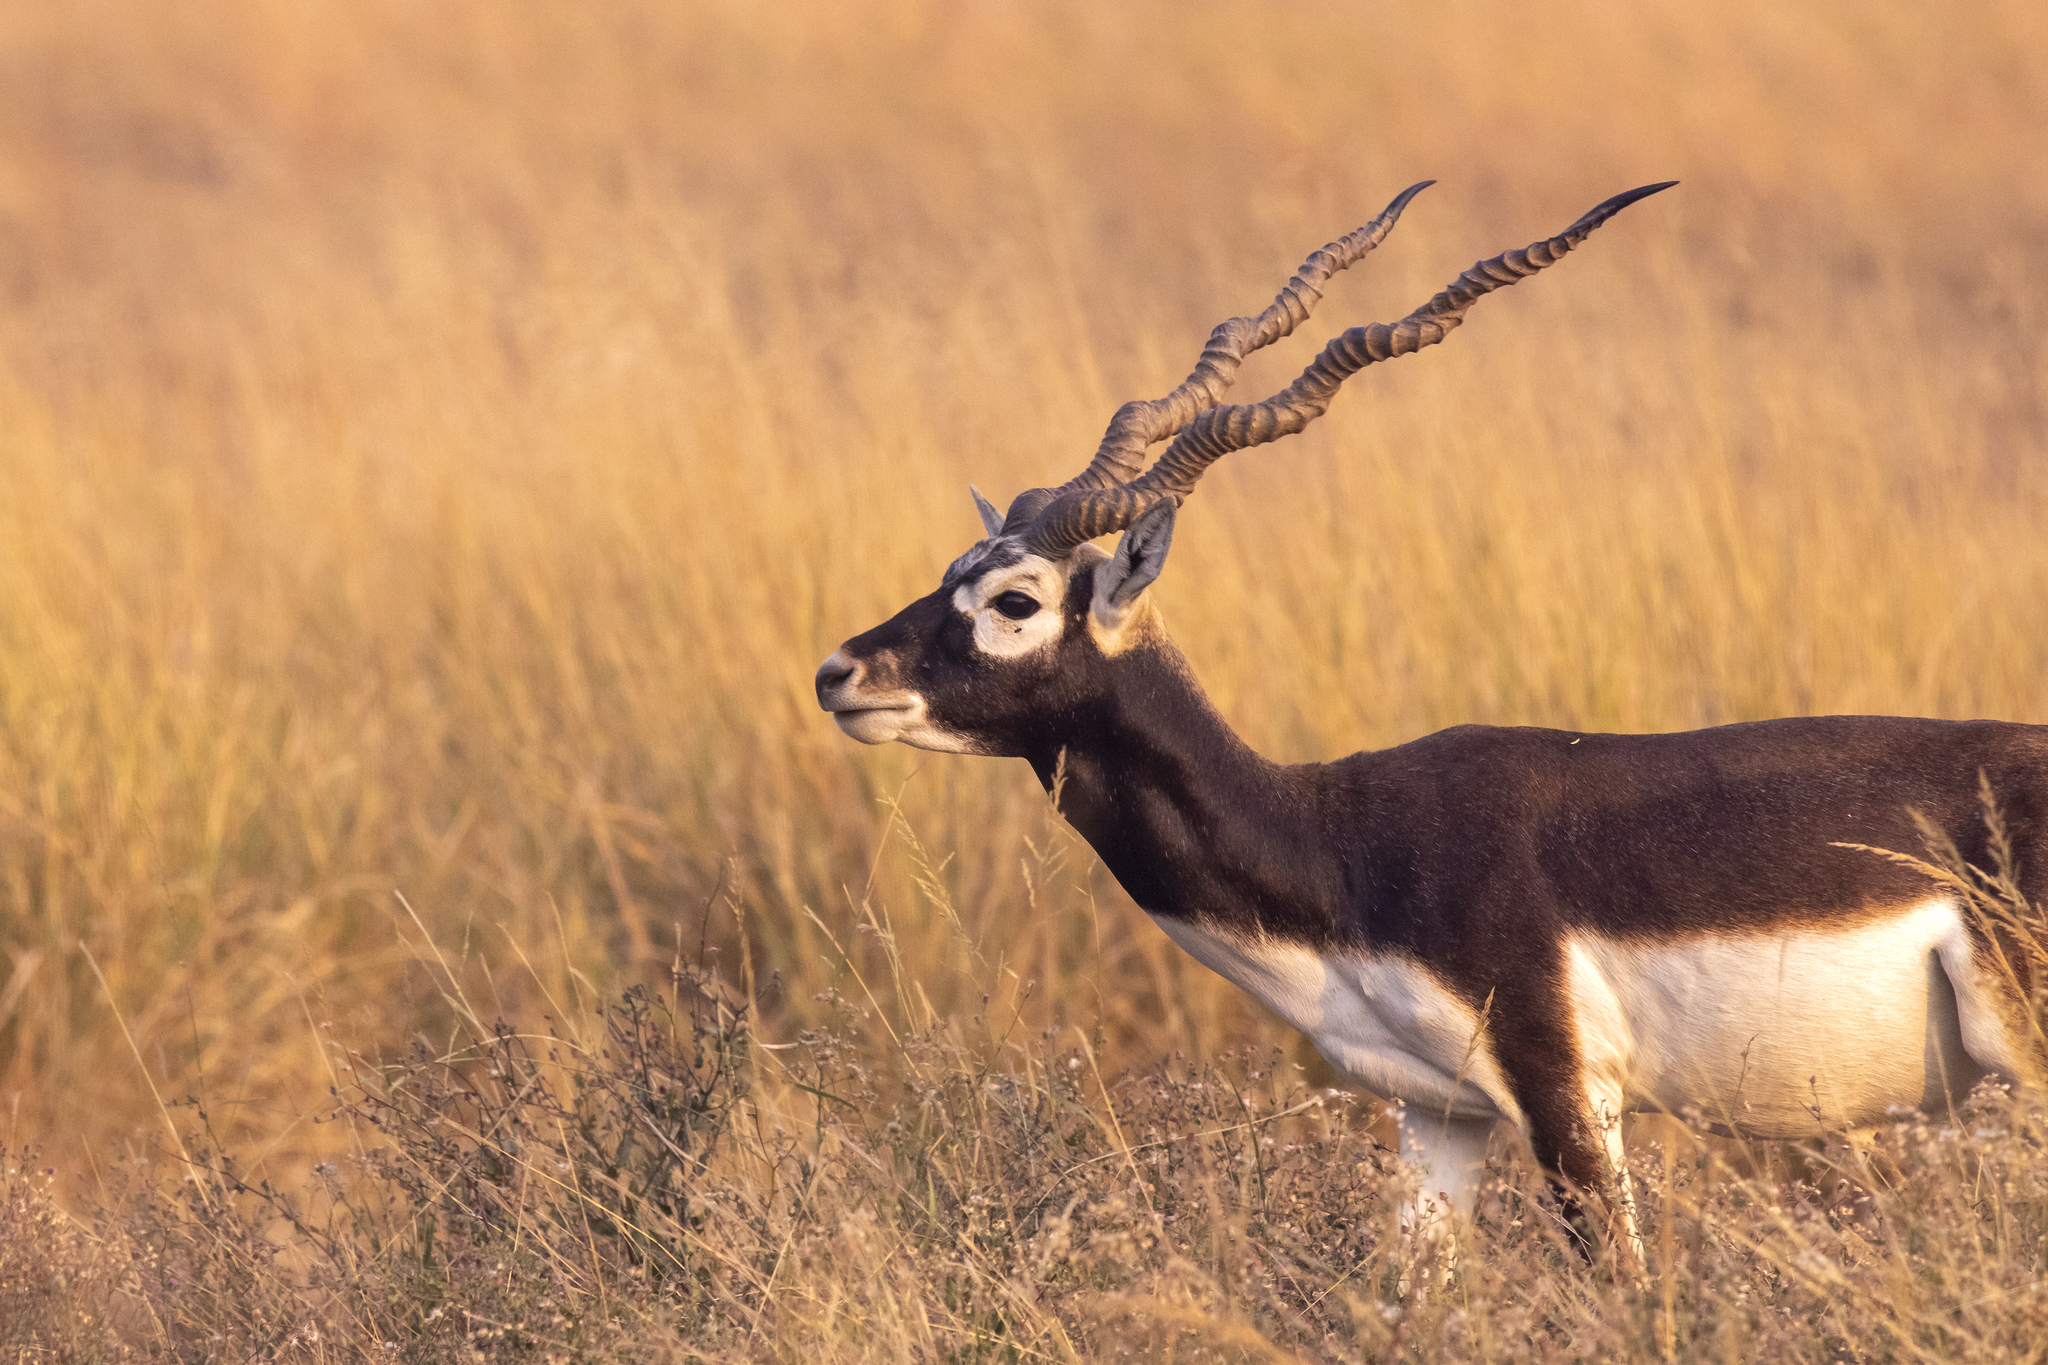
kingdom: Animalia
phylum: Chordata
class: Mammalia
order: Artiodactyla
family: Bovidae
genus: Antilope
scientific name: Antilope cervicapra
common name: Blackbuck
